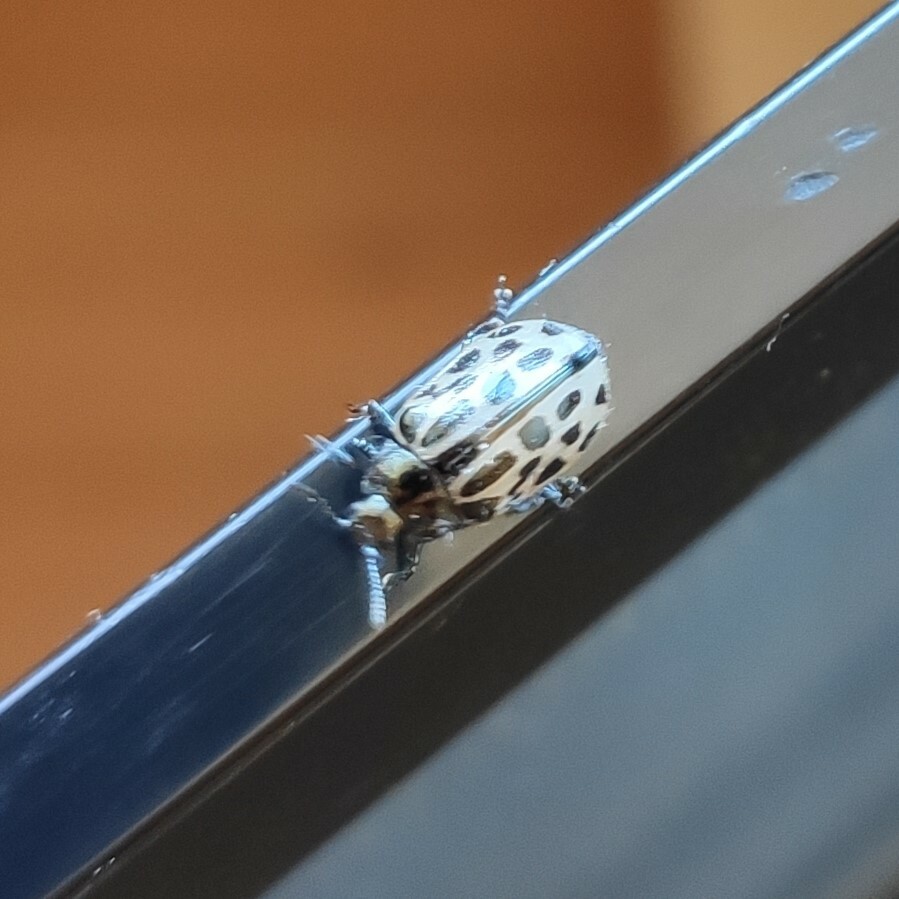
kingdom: Animalia
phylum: Arthropoda
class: Insecta
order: Coleoptera
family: Chrysomelidae
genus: Chrysomela
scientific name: Chrysomela vigintipunctata
